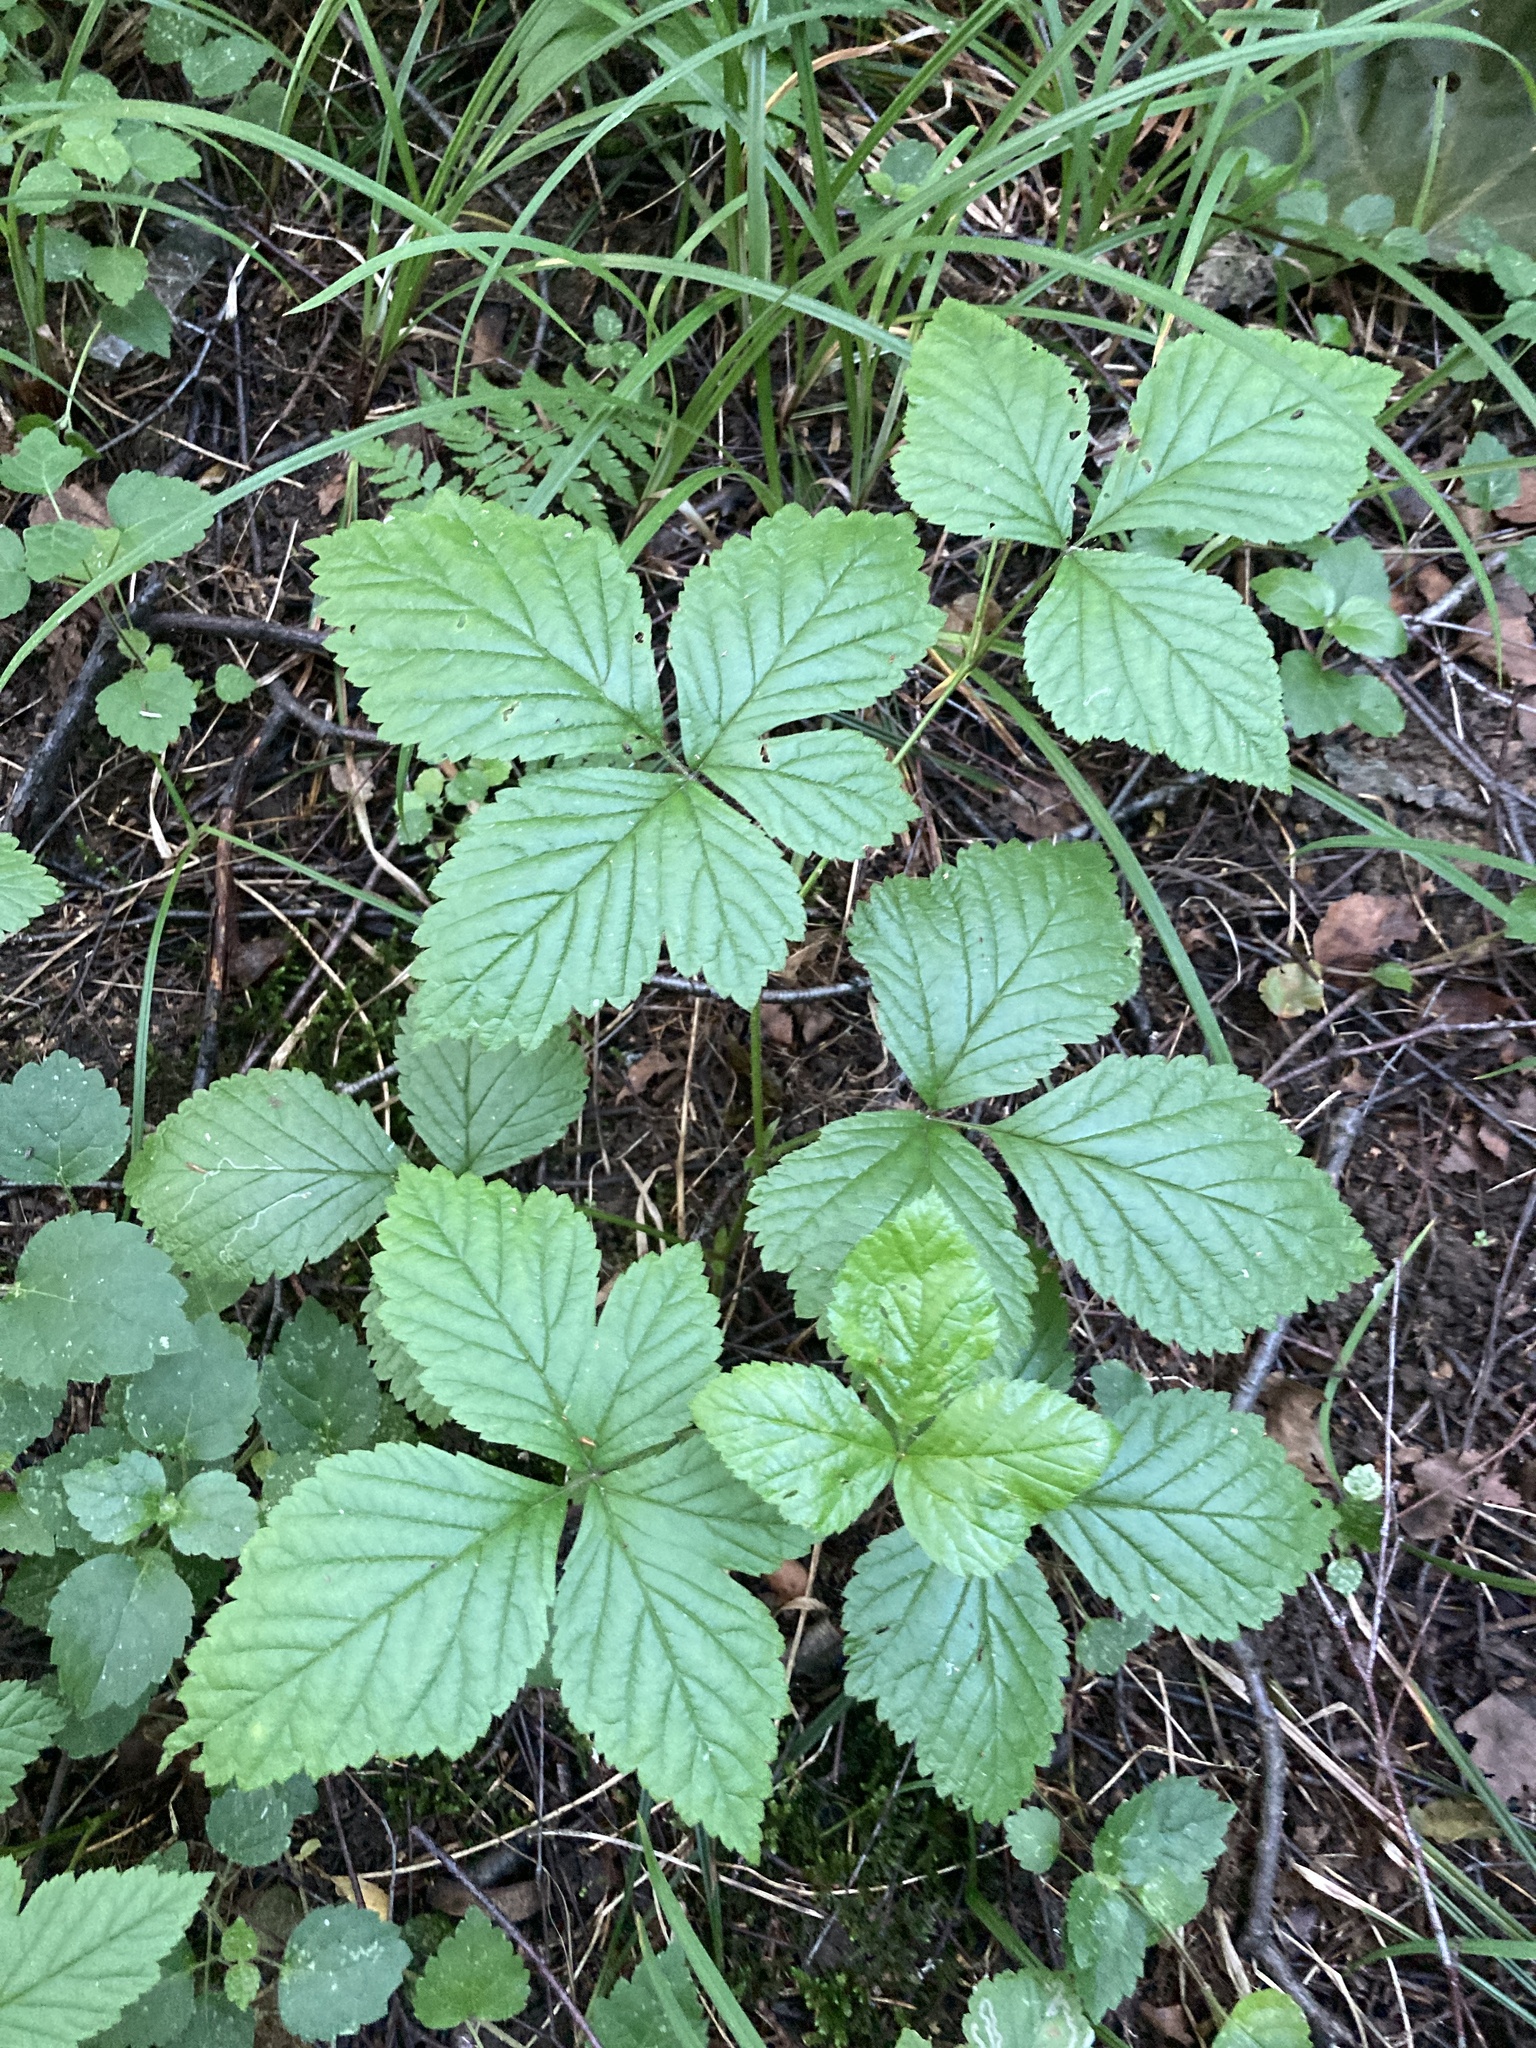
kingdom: Plantae
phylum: Tracheophyta
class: Magnoliopsida
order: Rosales
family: Rosaceae
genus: Rubus
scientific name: Rubus saxatilis
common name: Stone bramble
